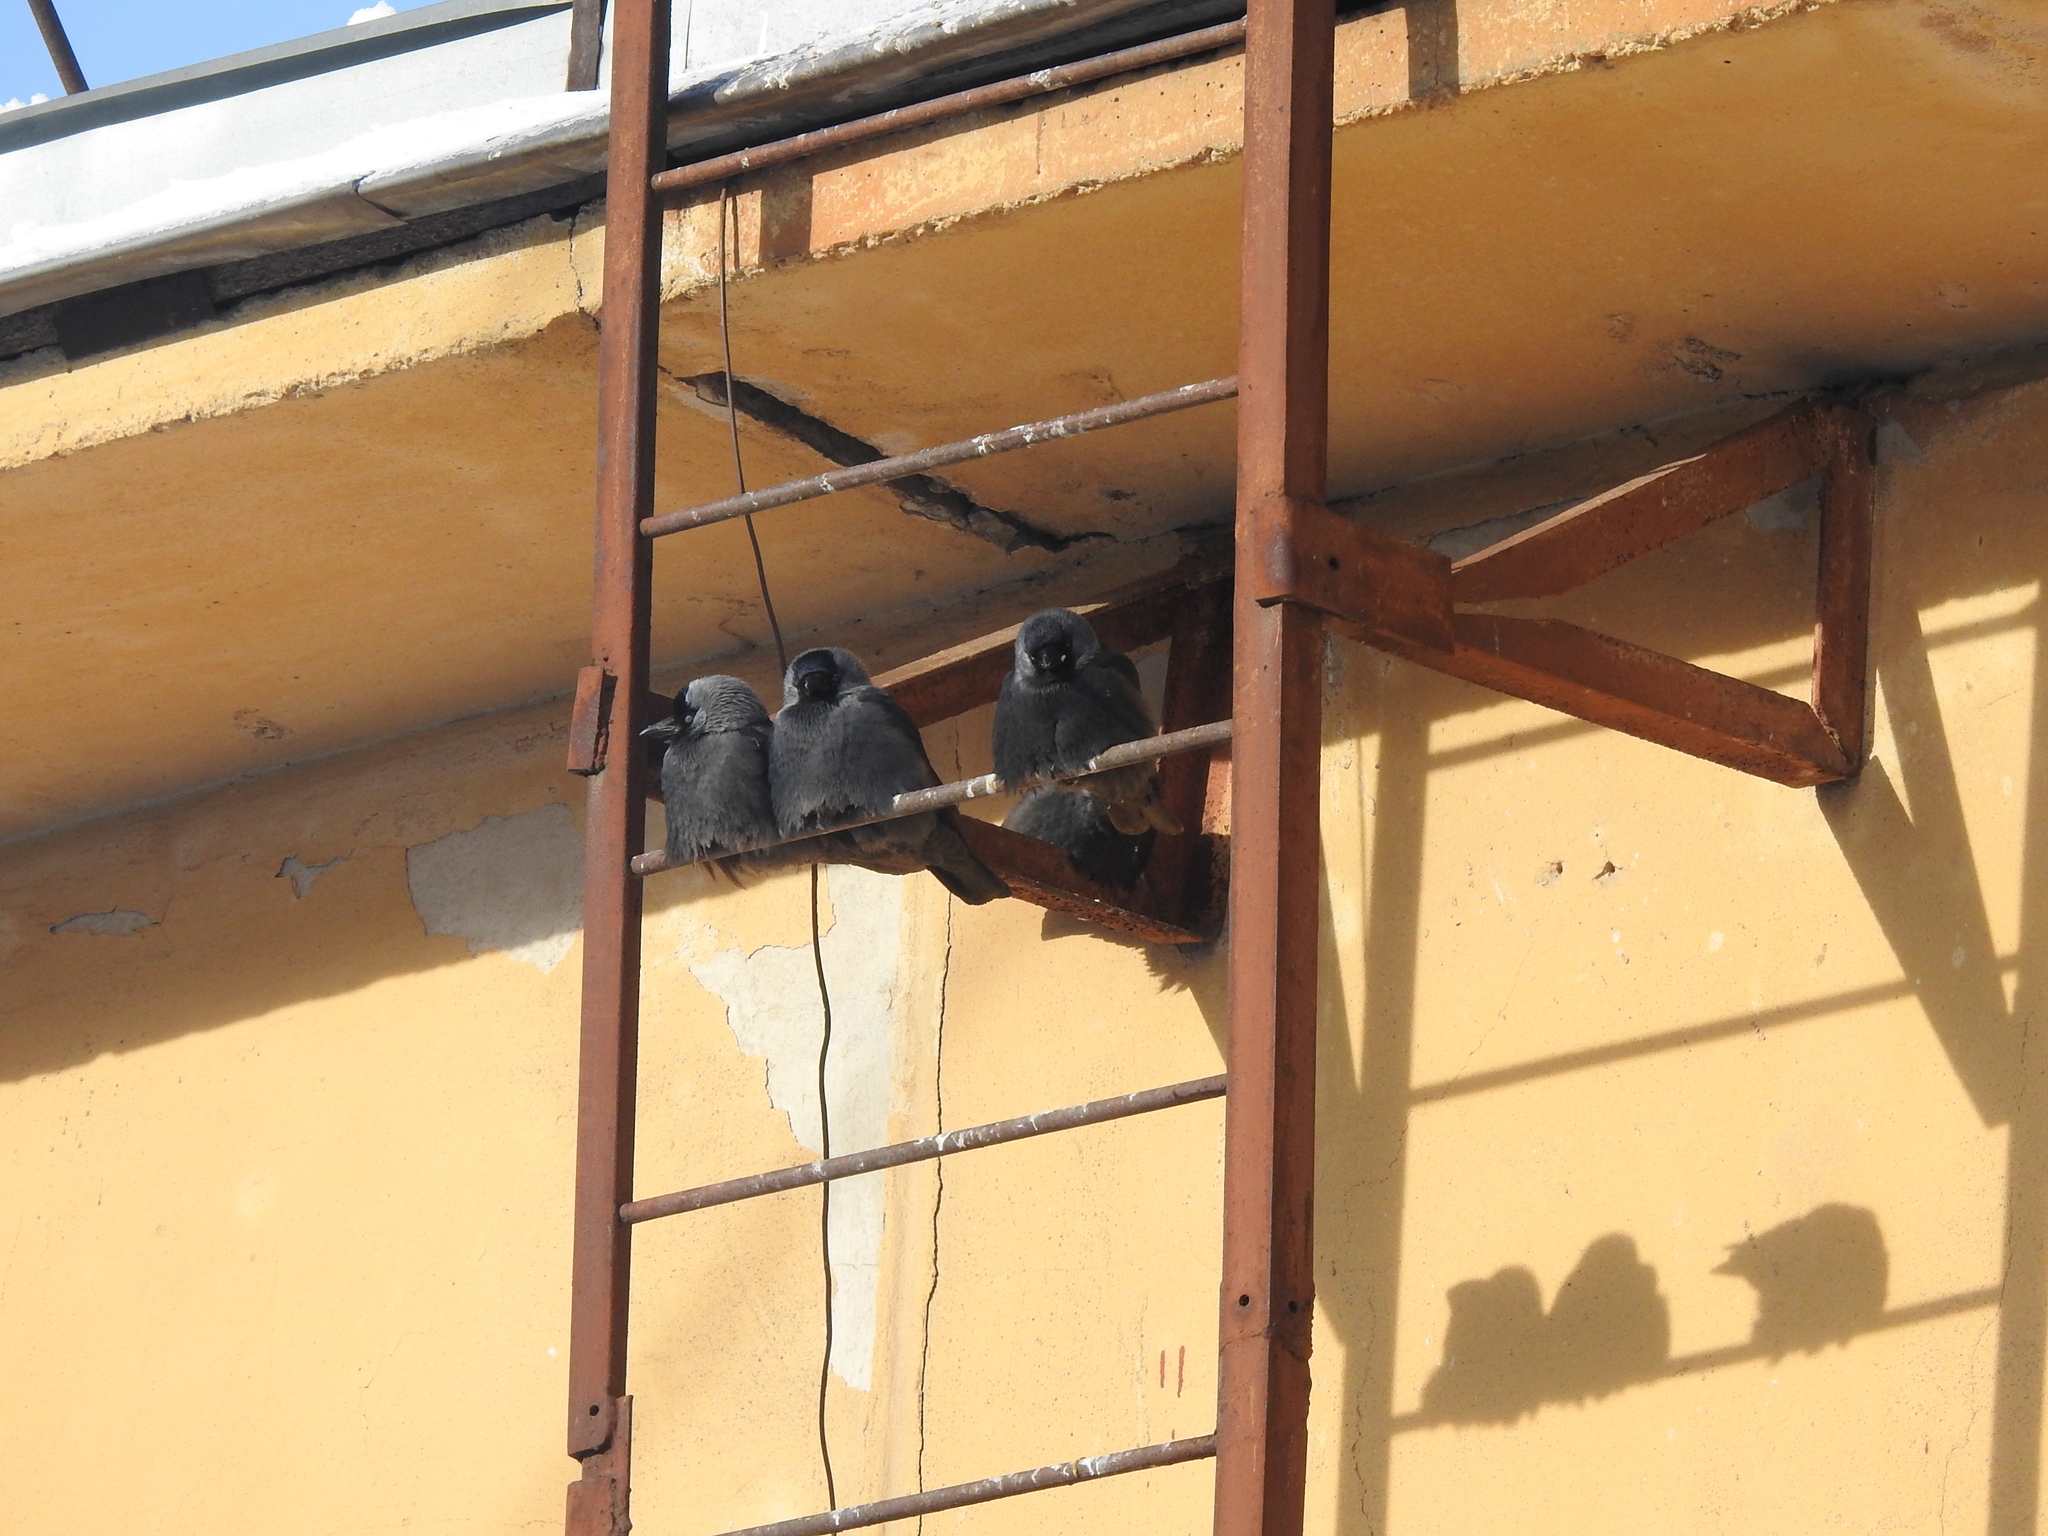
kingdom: Animalia
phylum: Chordata
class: Aves
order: Passeriformes
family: Corvidae
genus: Coloeus
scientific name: Coloeus monedula
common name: Western jackdaw
